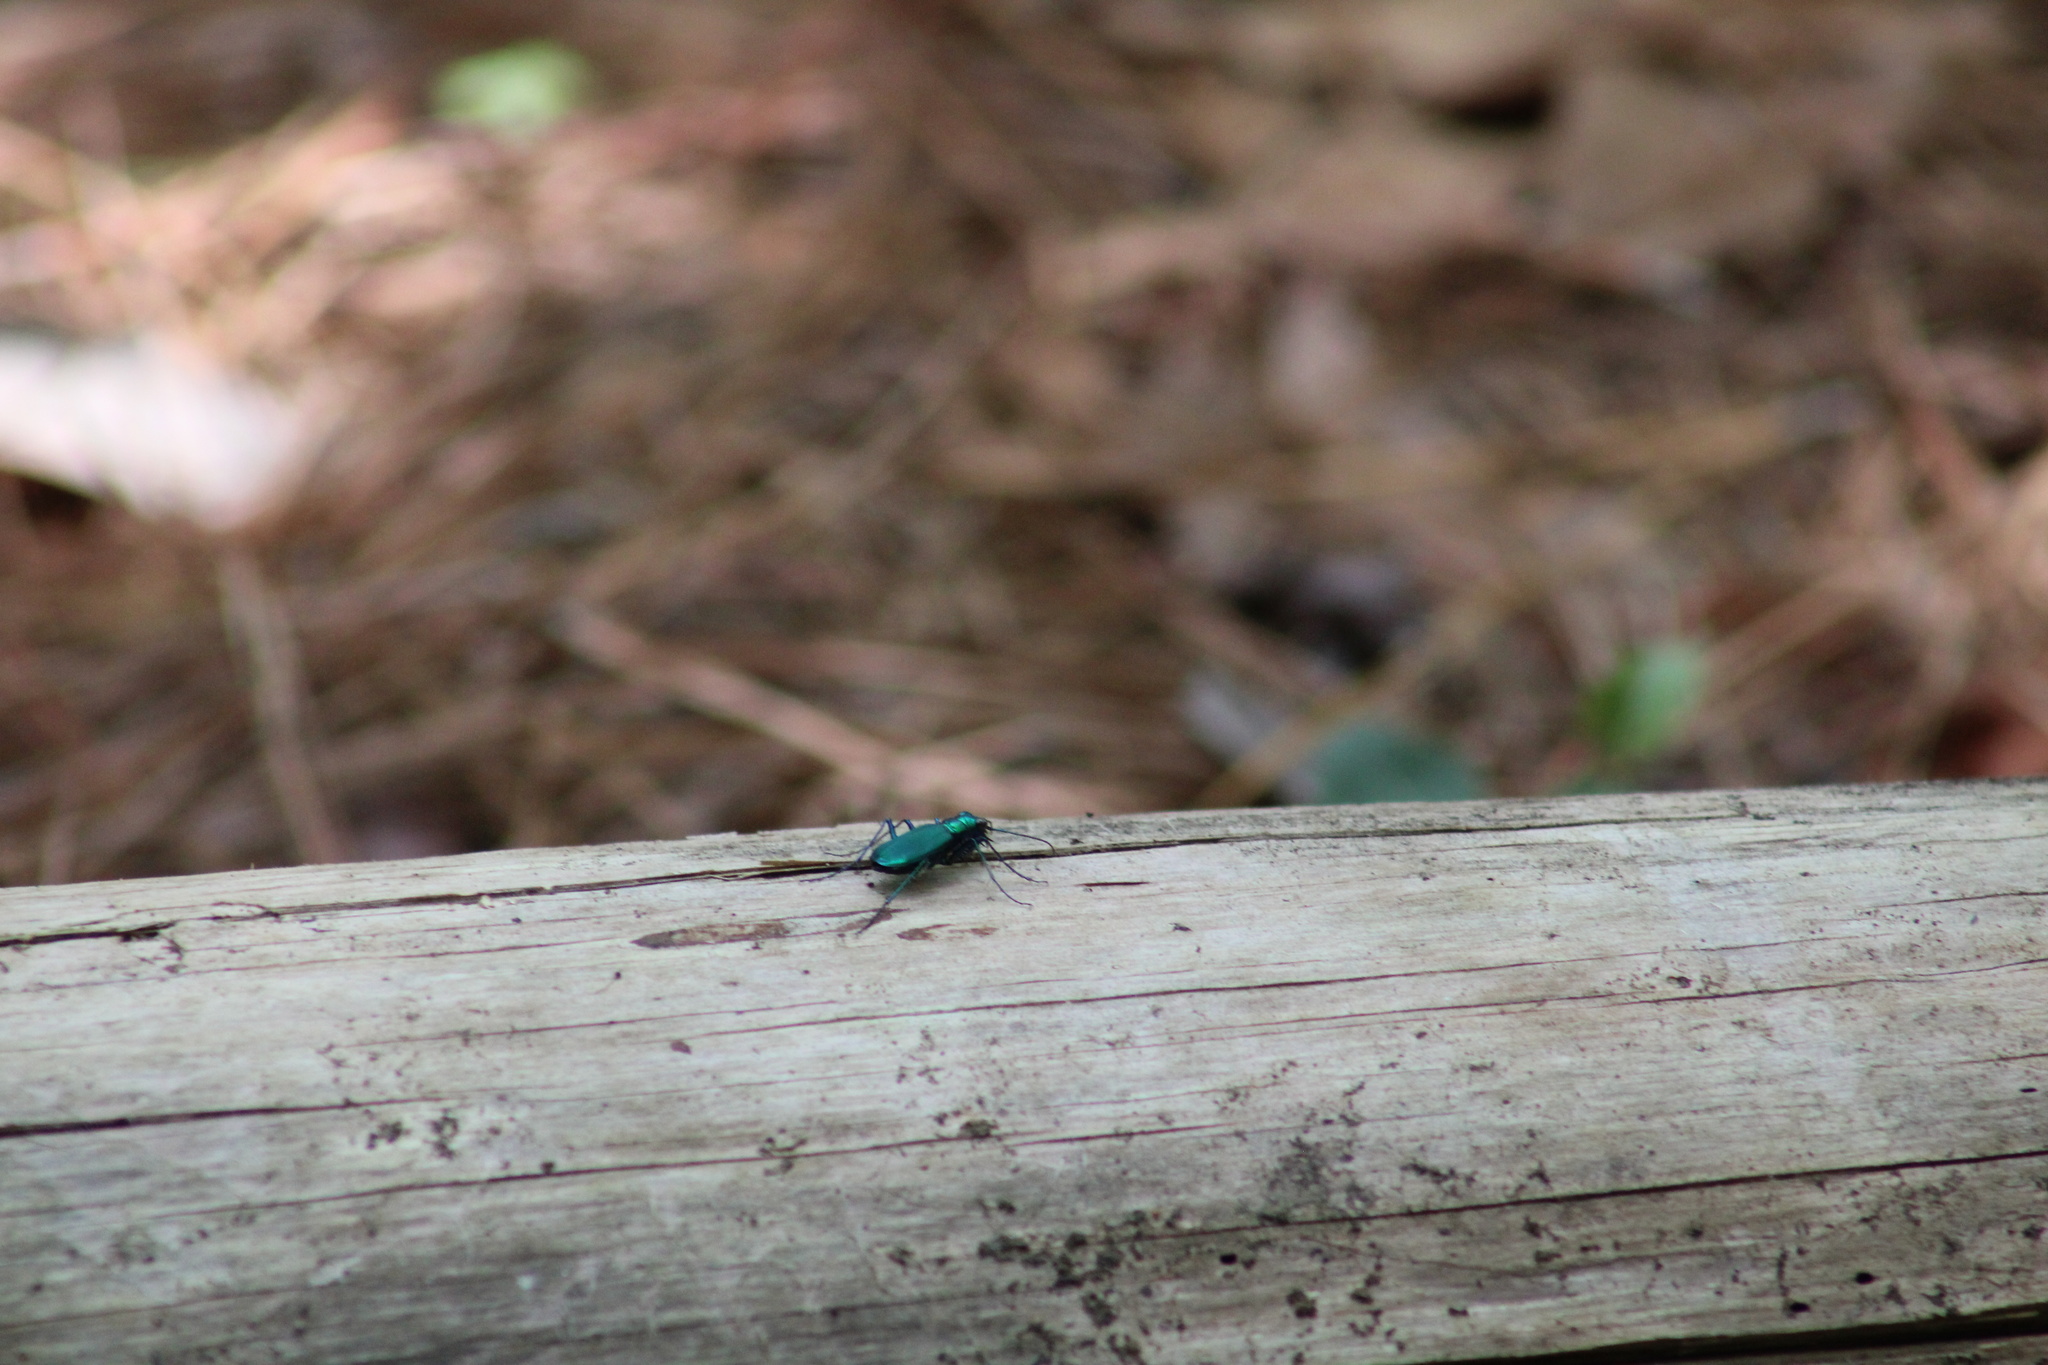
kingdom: Animalia
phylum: Arthropoda
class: Insecta
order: Coleoptera
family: Carabidae
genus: Cicindela
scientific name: Cicindela sexguttata
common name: Six-spotted tiger beetle
